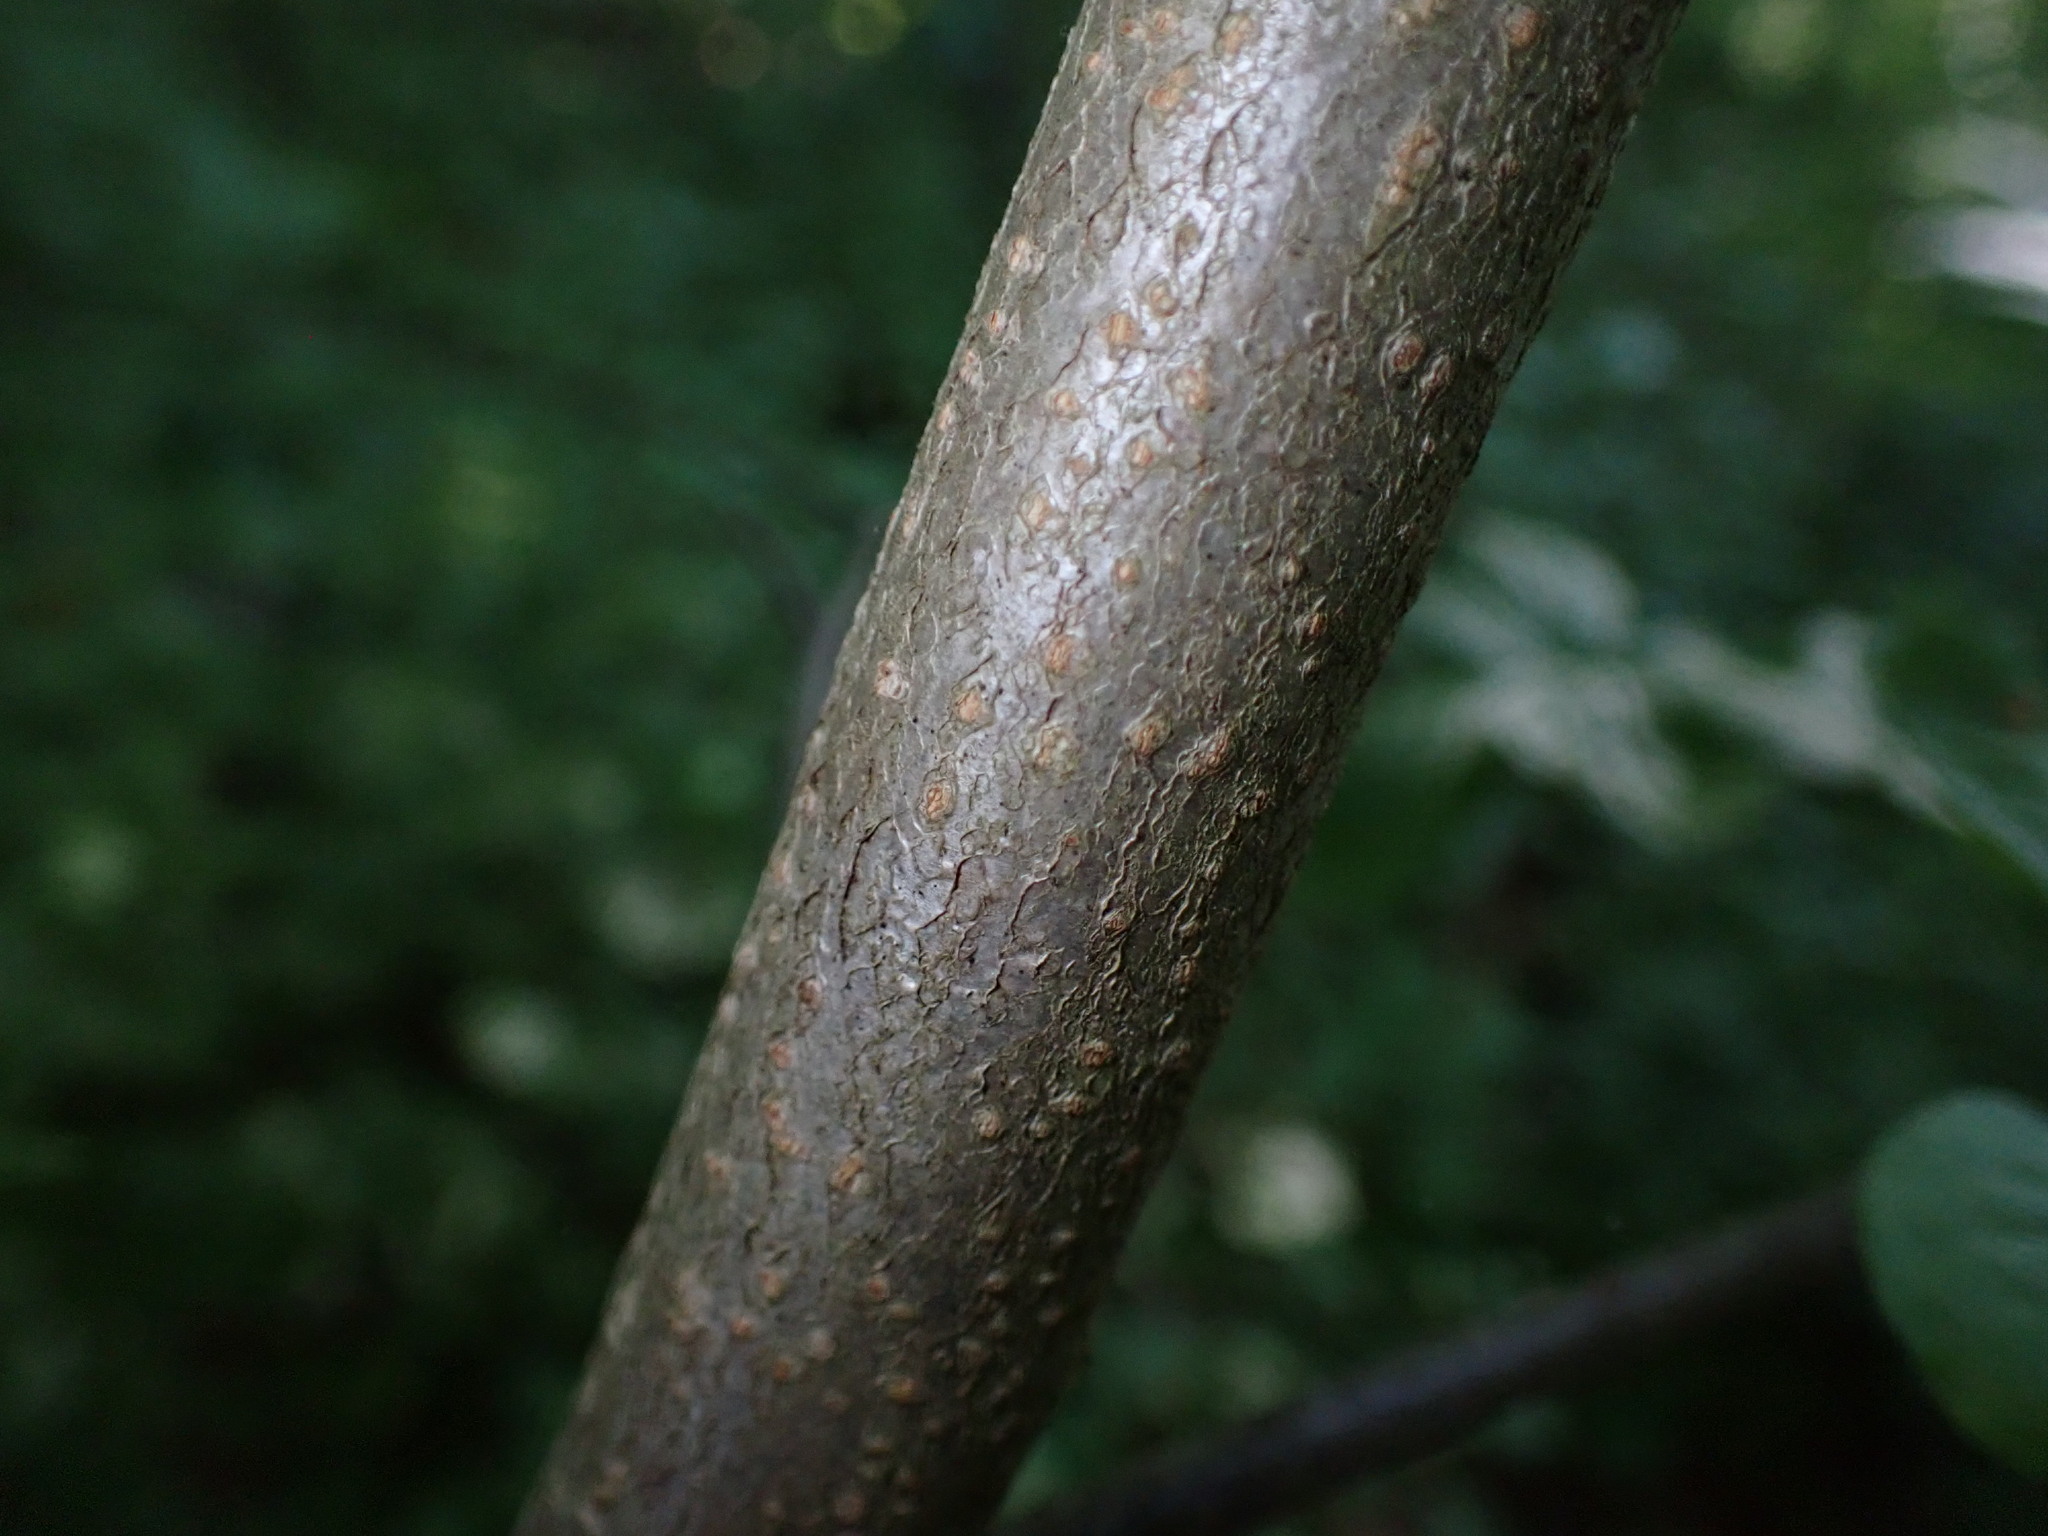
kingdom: Plantae
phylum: Tracheophyta
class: Magnoliopsida
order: Rosales
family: Rosaceae
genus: Pourthiaea
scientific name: Pourthiaea villosa
